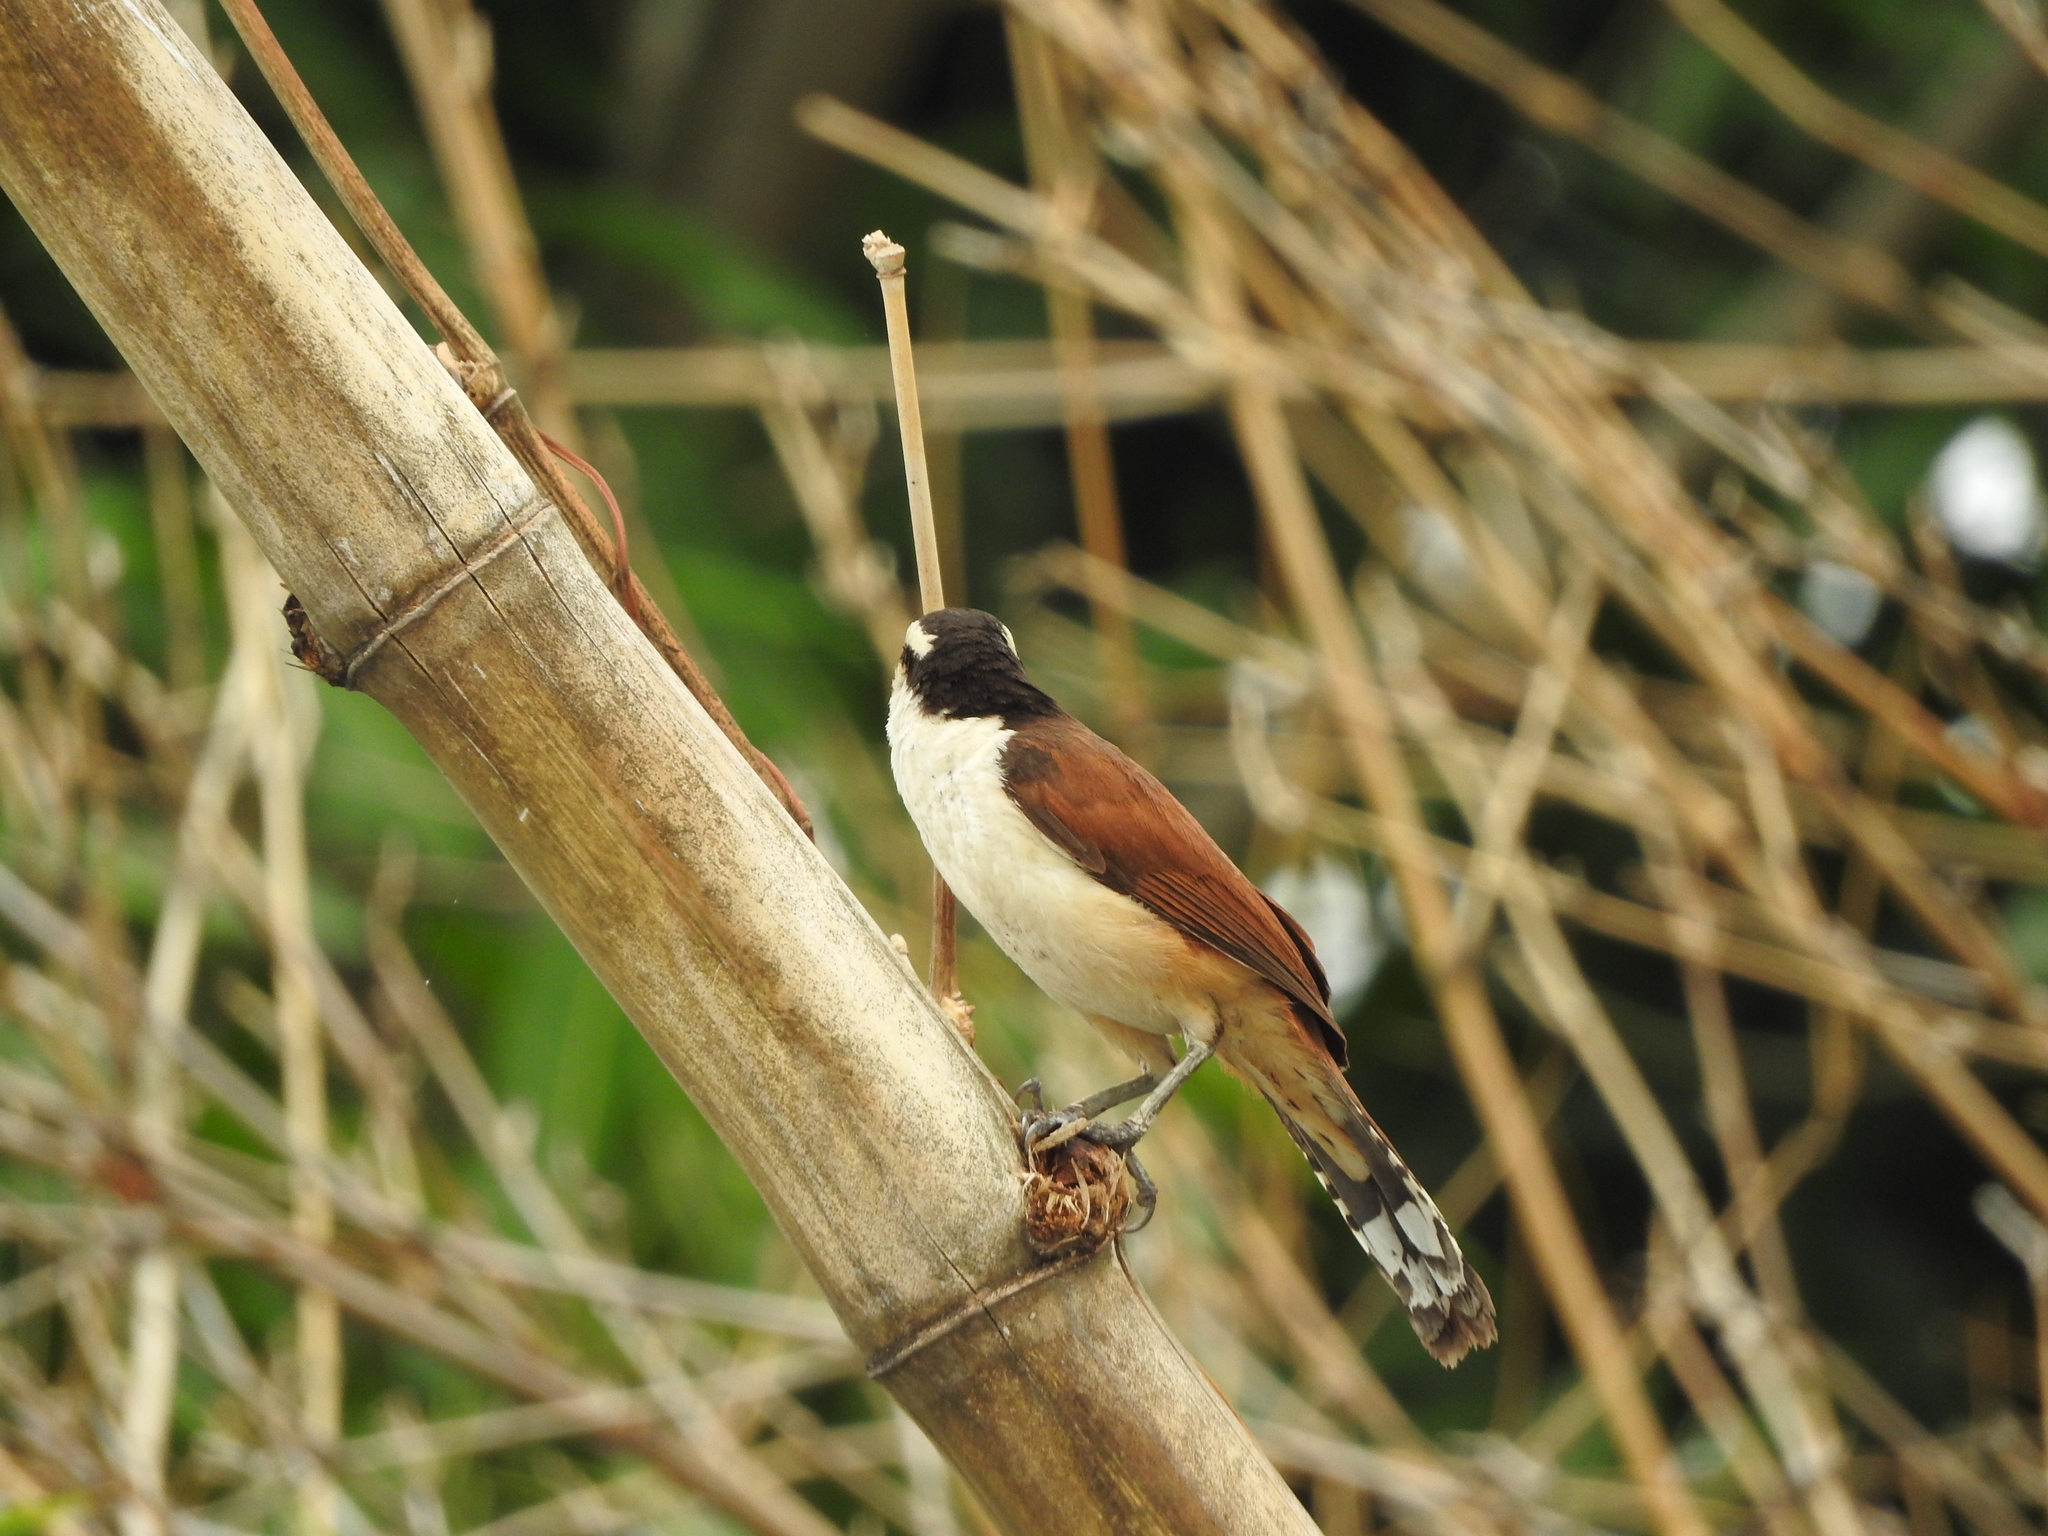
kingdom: Animalia
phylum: Chordata
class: Aves
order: Passeriformes
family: Troglodytidae
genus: Campylorhynchus
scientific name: Campylorhynchus chiapensis
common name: Giant wren
